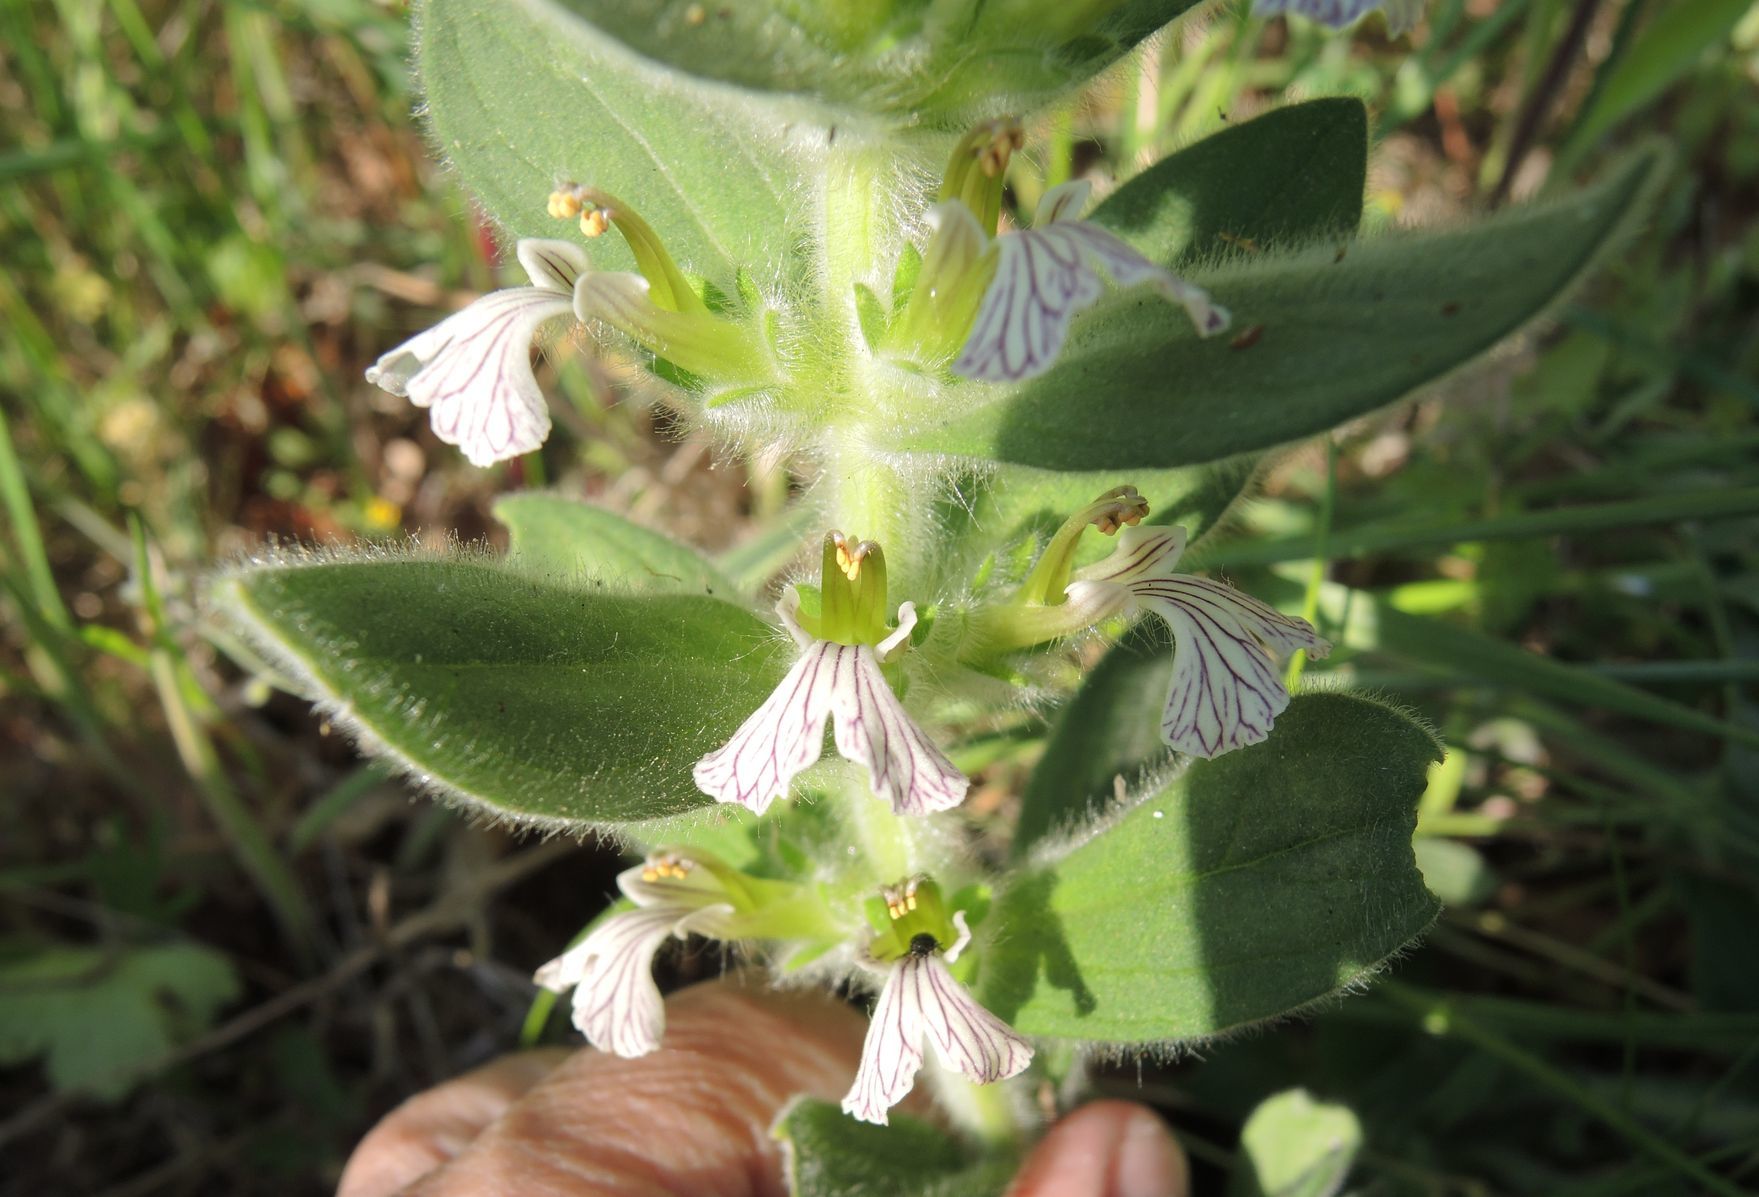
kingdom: Plantae
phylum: Tracheophyta
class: Magnoliopsida
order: Lamiales
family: Lamiaceae
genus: Ajuga
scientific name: Ajuga laxmannii
